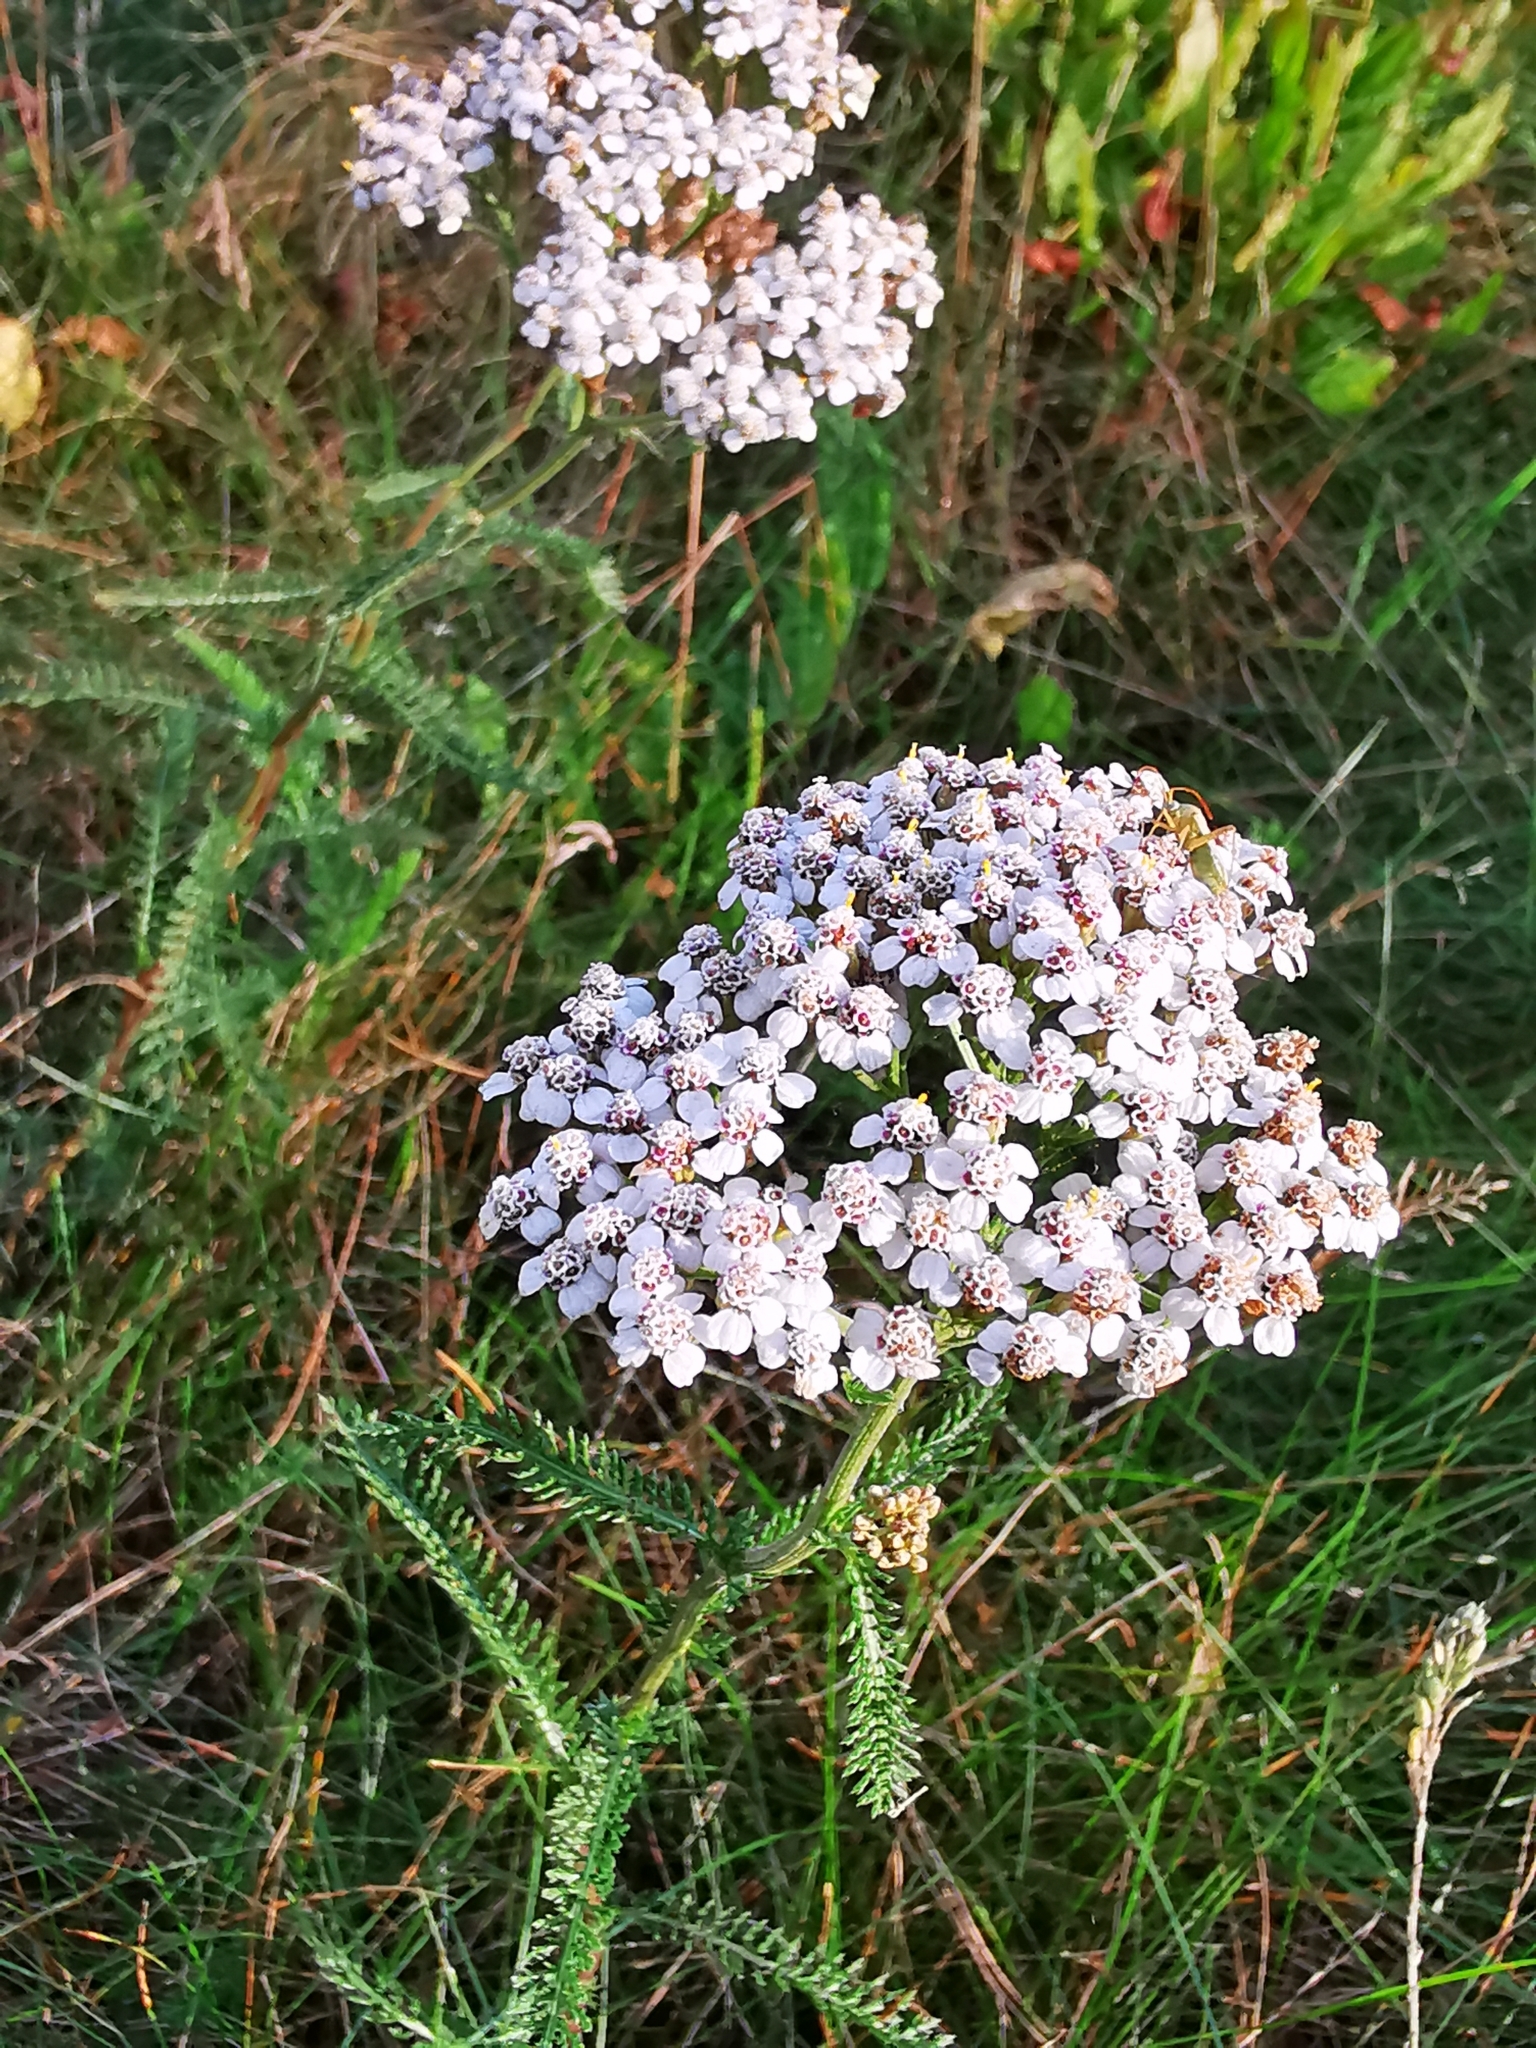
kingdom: Plantae
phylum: Tracheophyta
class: Magnoliopsida
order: Asterales
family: Asteraceae
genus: Achillea
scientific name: Achillea millefolium
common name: Yarrow
